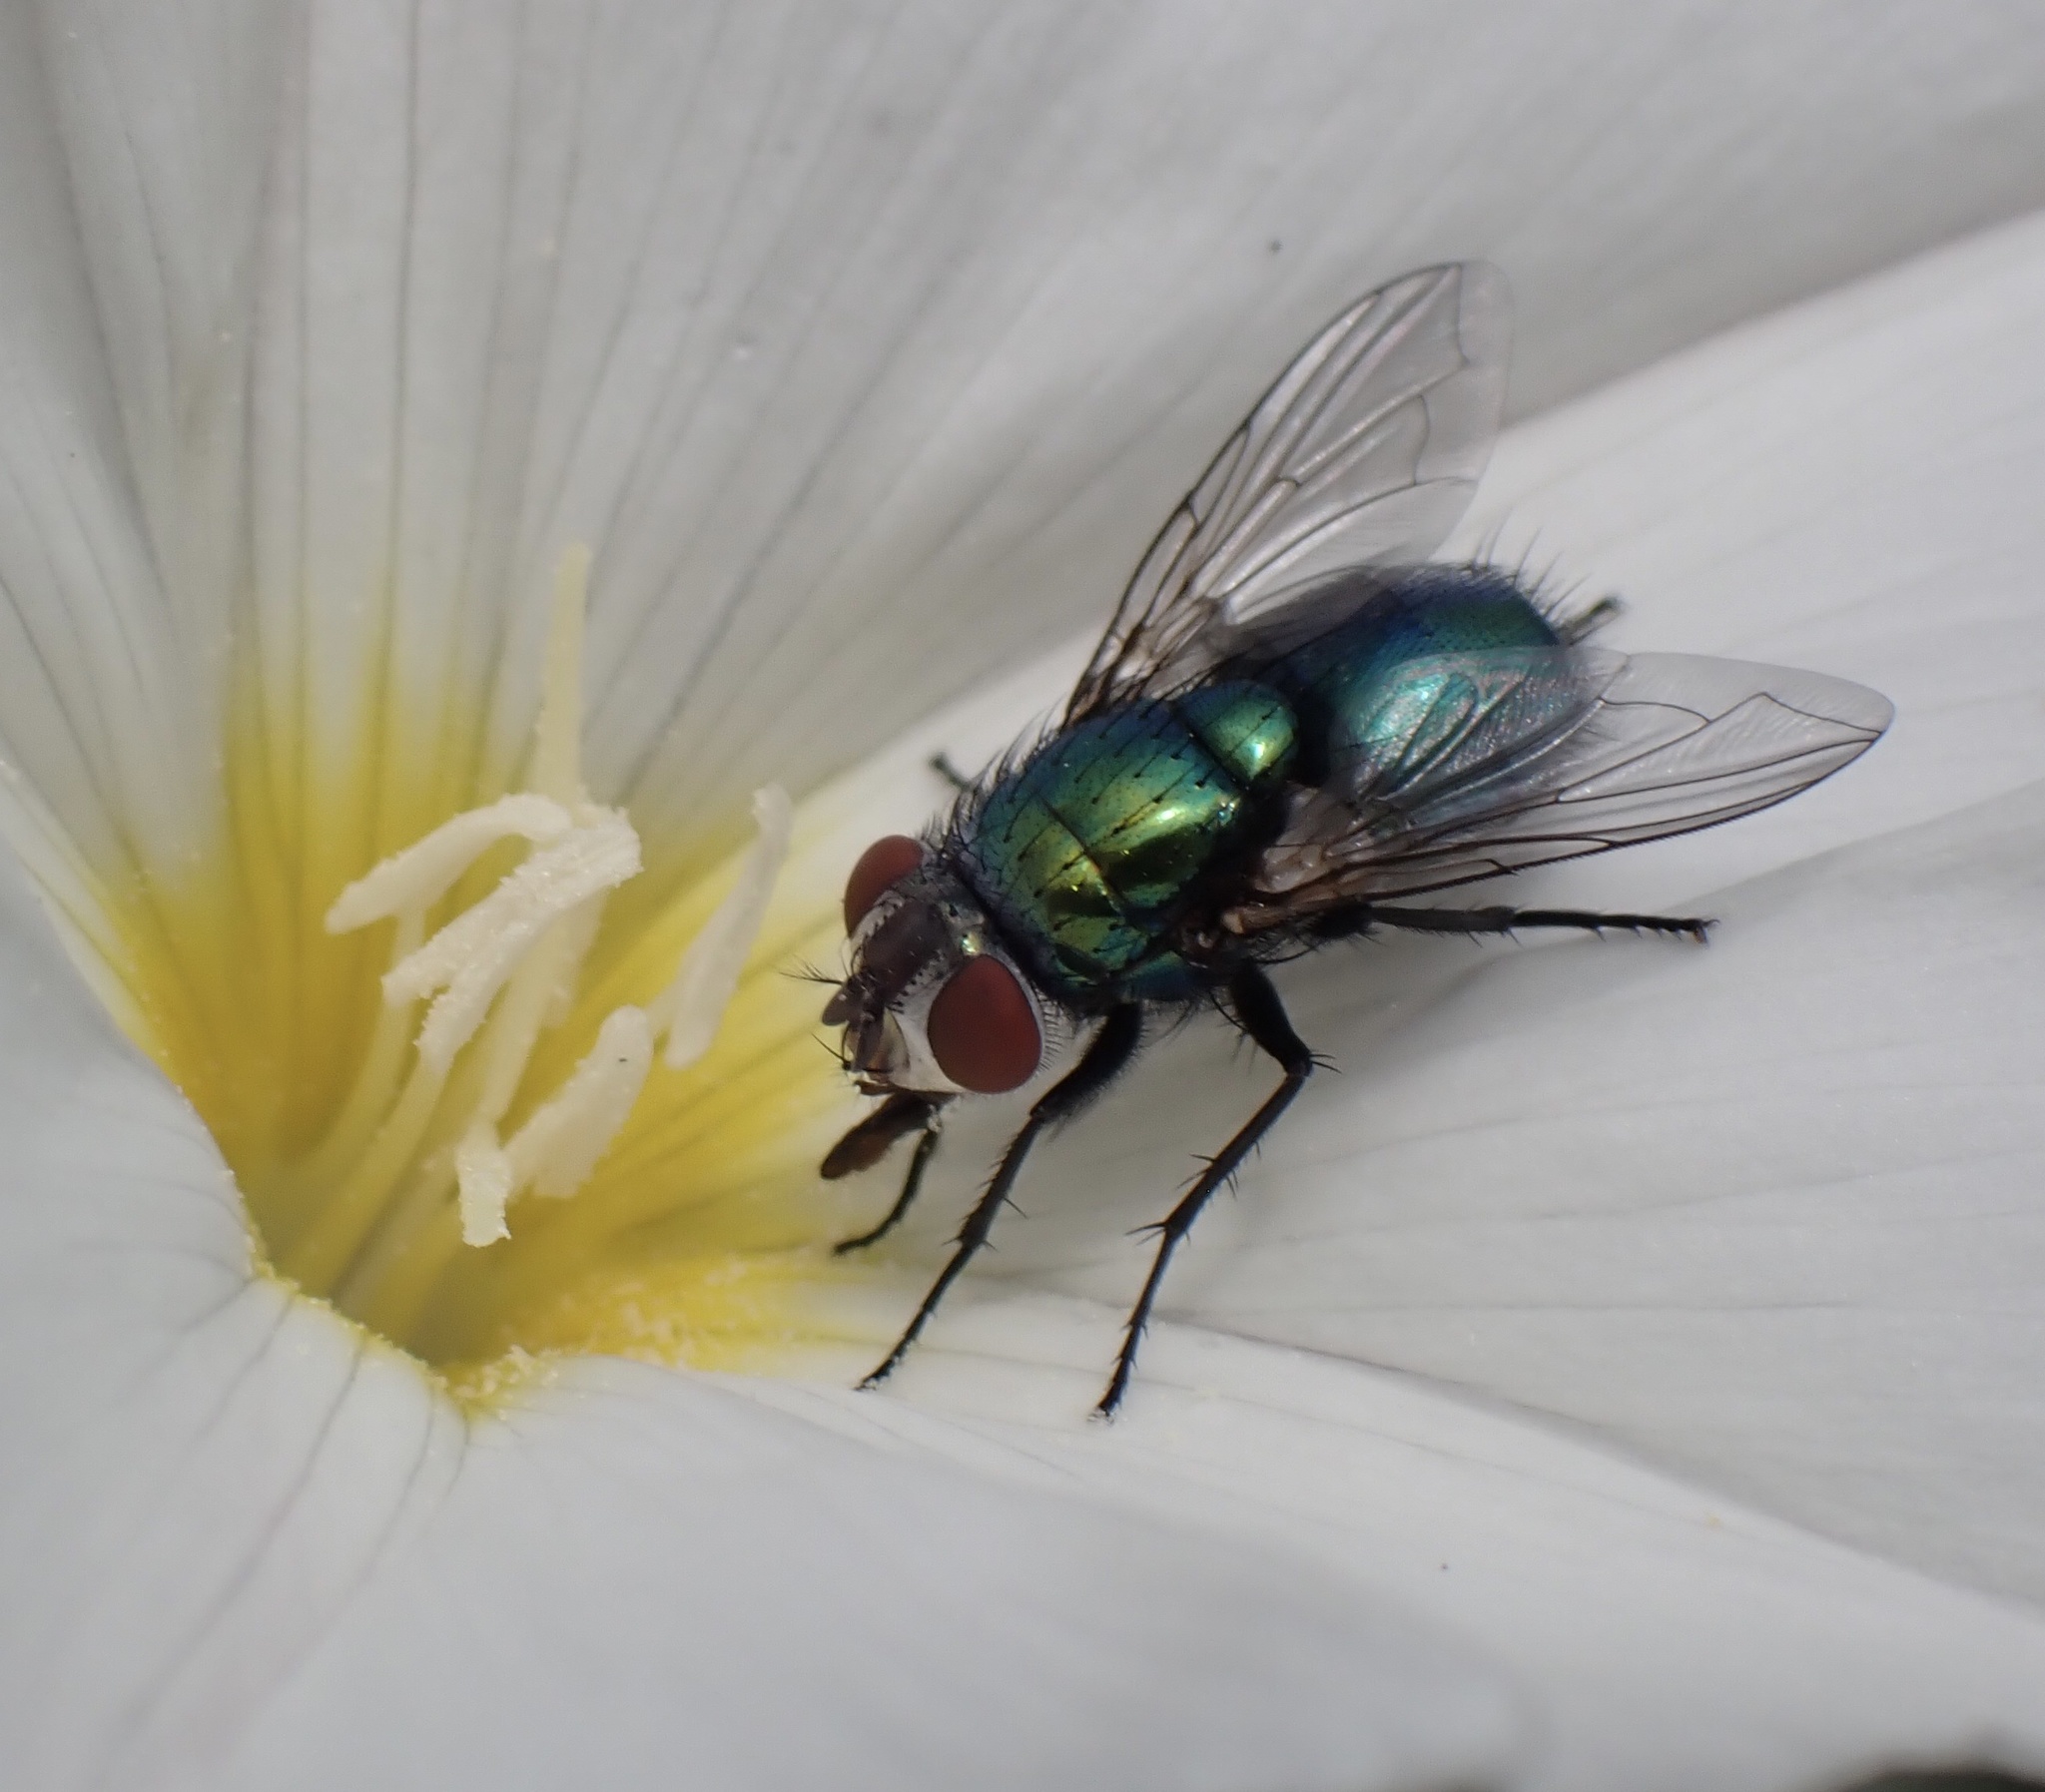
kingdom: Animalia
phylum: Arthropoda
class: Insecta
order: Diptera
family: Calliphoridae
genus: Lucilia
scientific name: Lucilia sericata
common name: Blow fly
